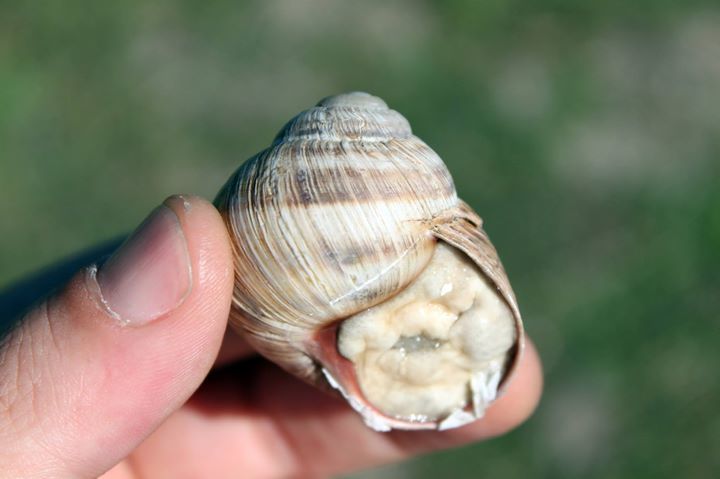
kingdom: Animalia
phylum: Mollusca
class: Gastropoda
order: Stylommatophora
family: Helicidae
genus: Helix
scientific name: Helix schlaeflii
